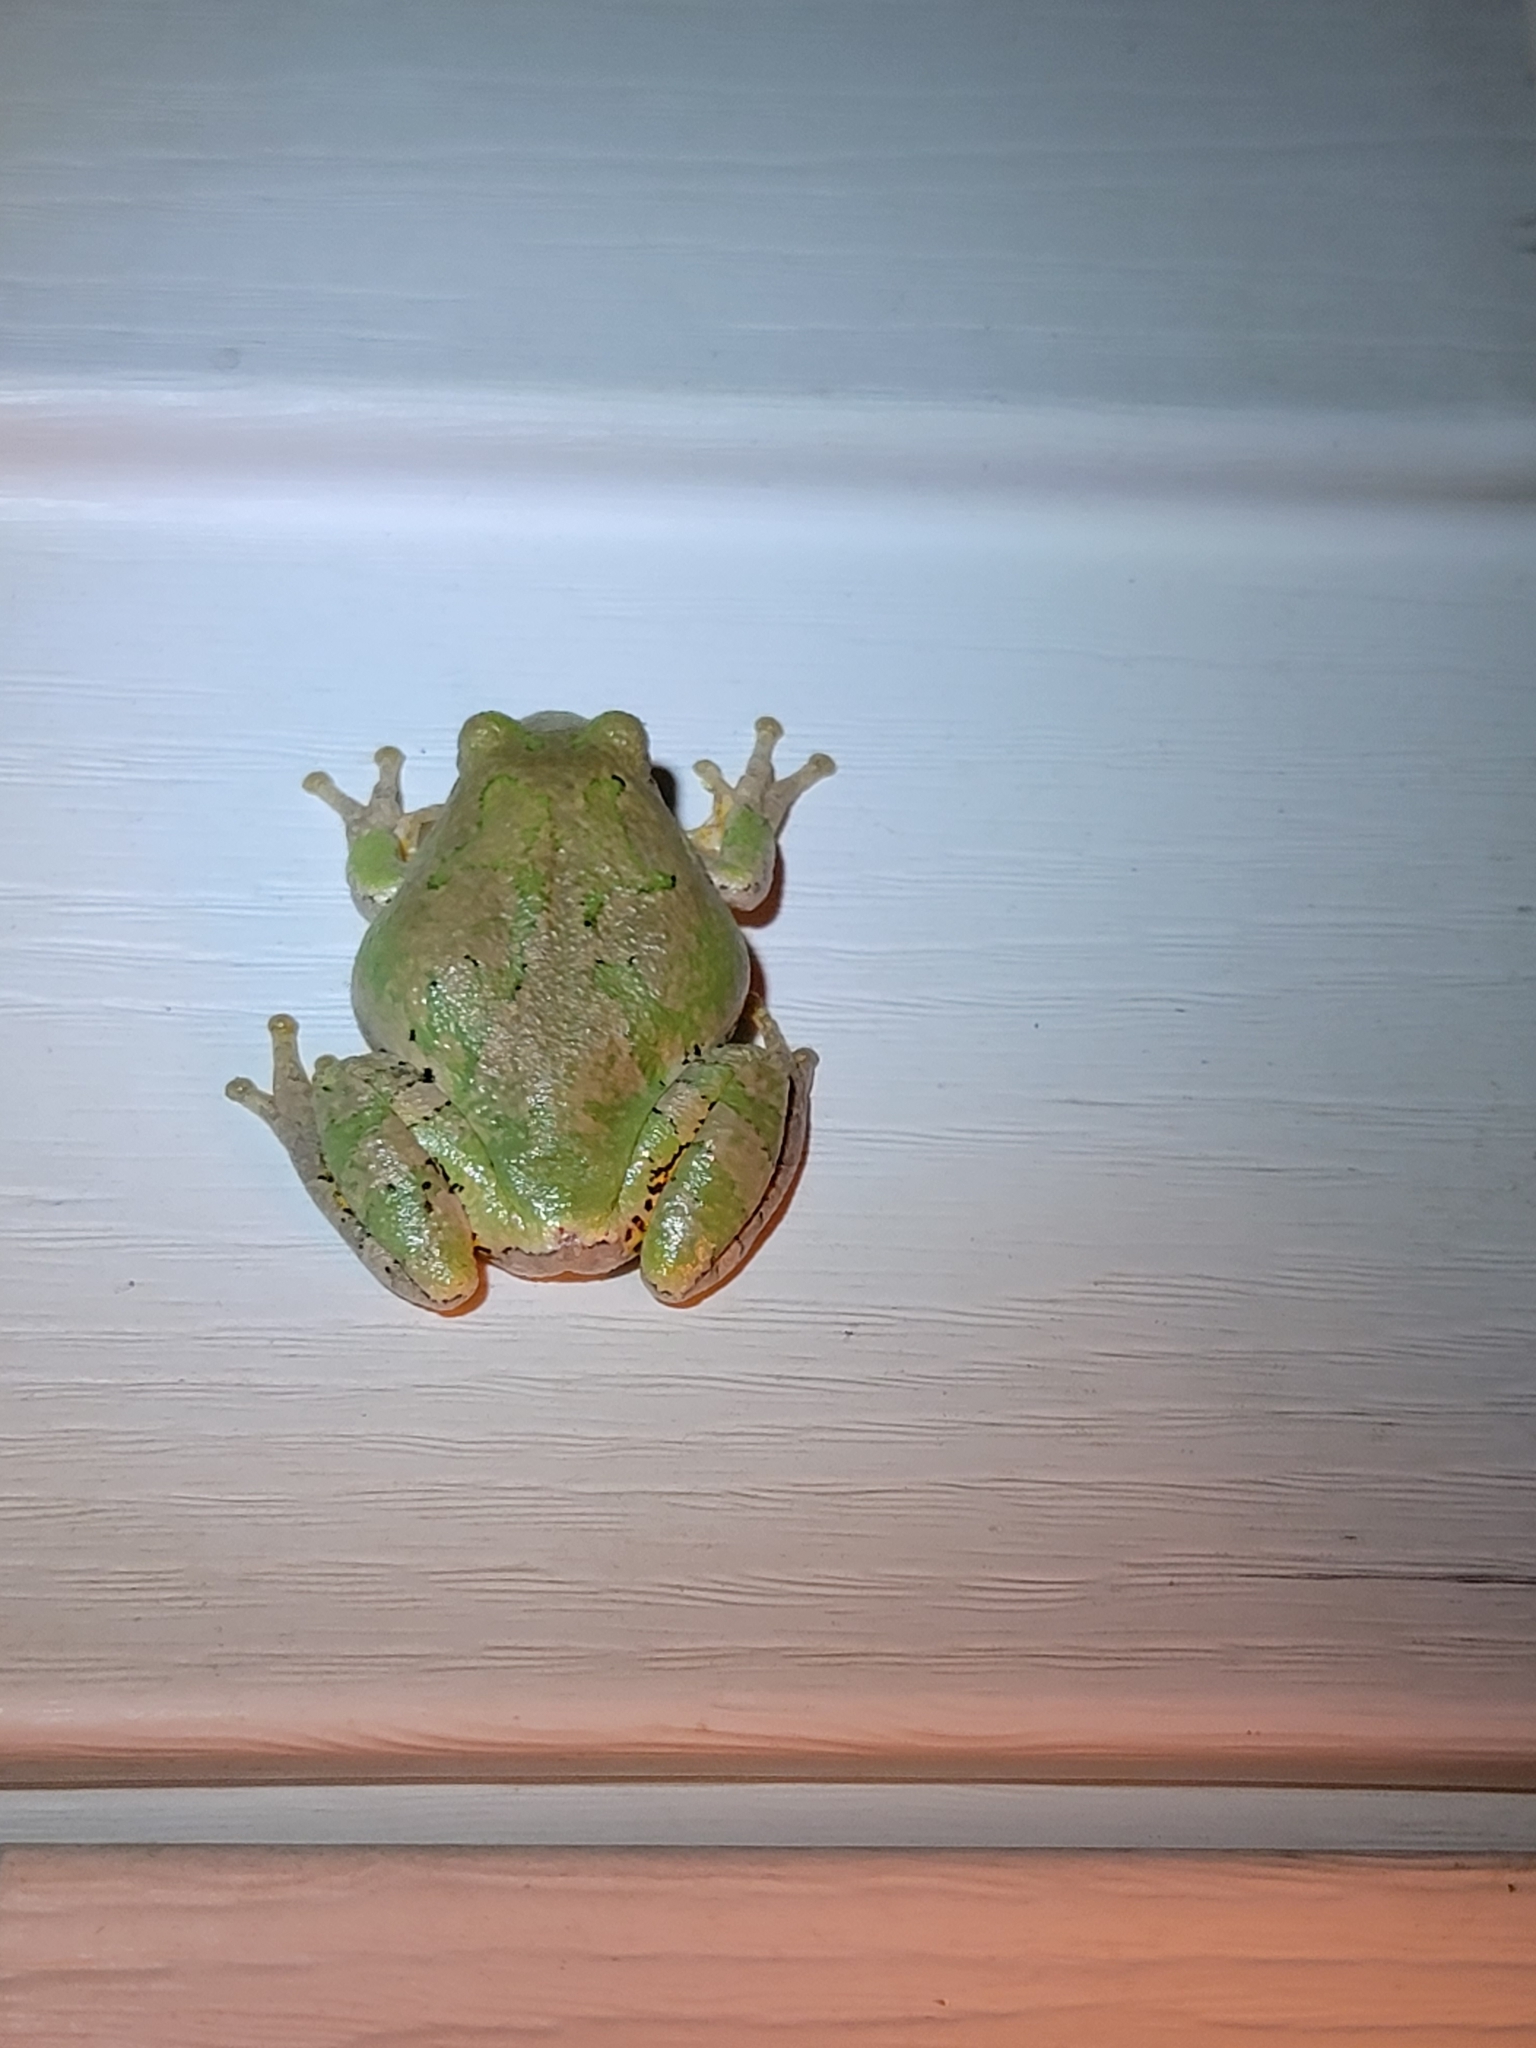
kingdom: Animalia
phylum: Chordata
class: Amphibia
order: Anura
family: Hylidae
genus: Hyla
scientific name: Hyla
